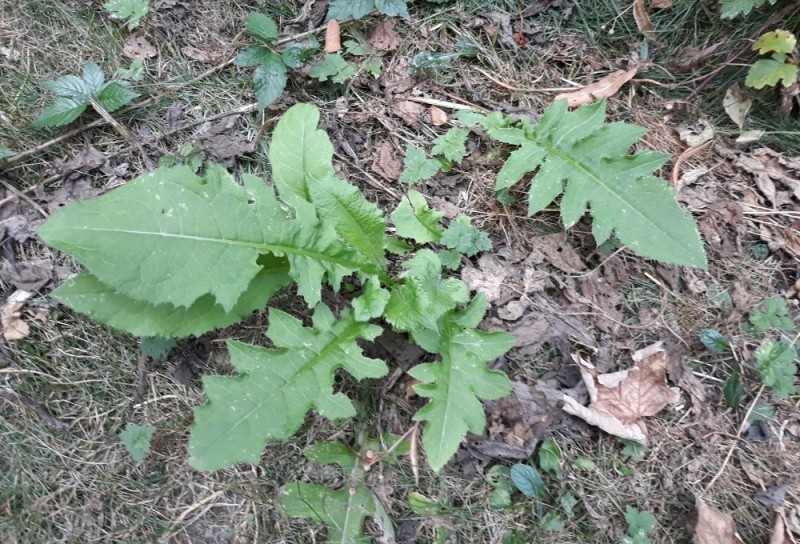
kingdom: Plantae
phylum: Tracheophyta
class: Magnoliopsida
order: Asterales
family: Asteraceae
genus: Cirsium
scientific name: Cirsium oleraceum
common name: Cabbage thistle
